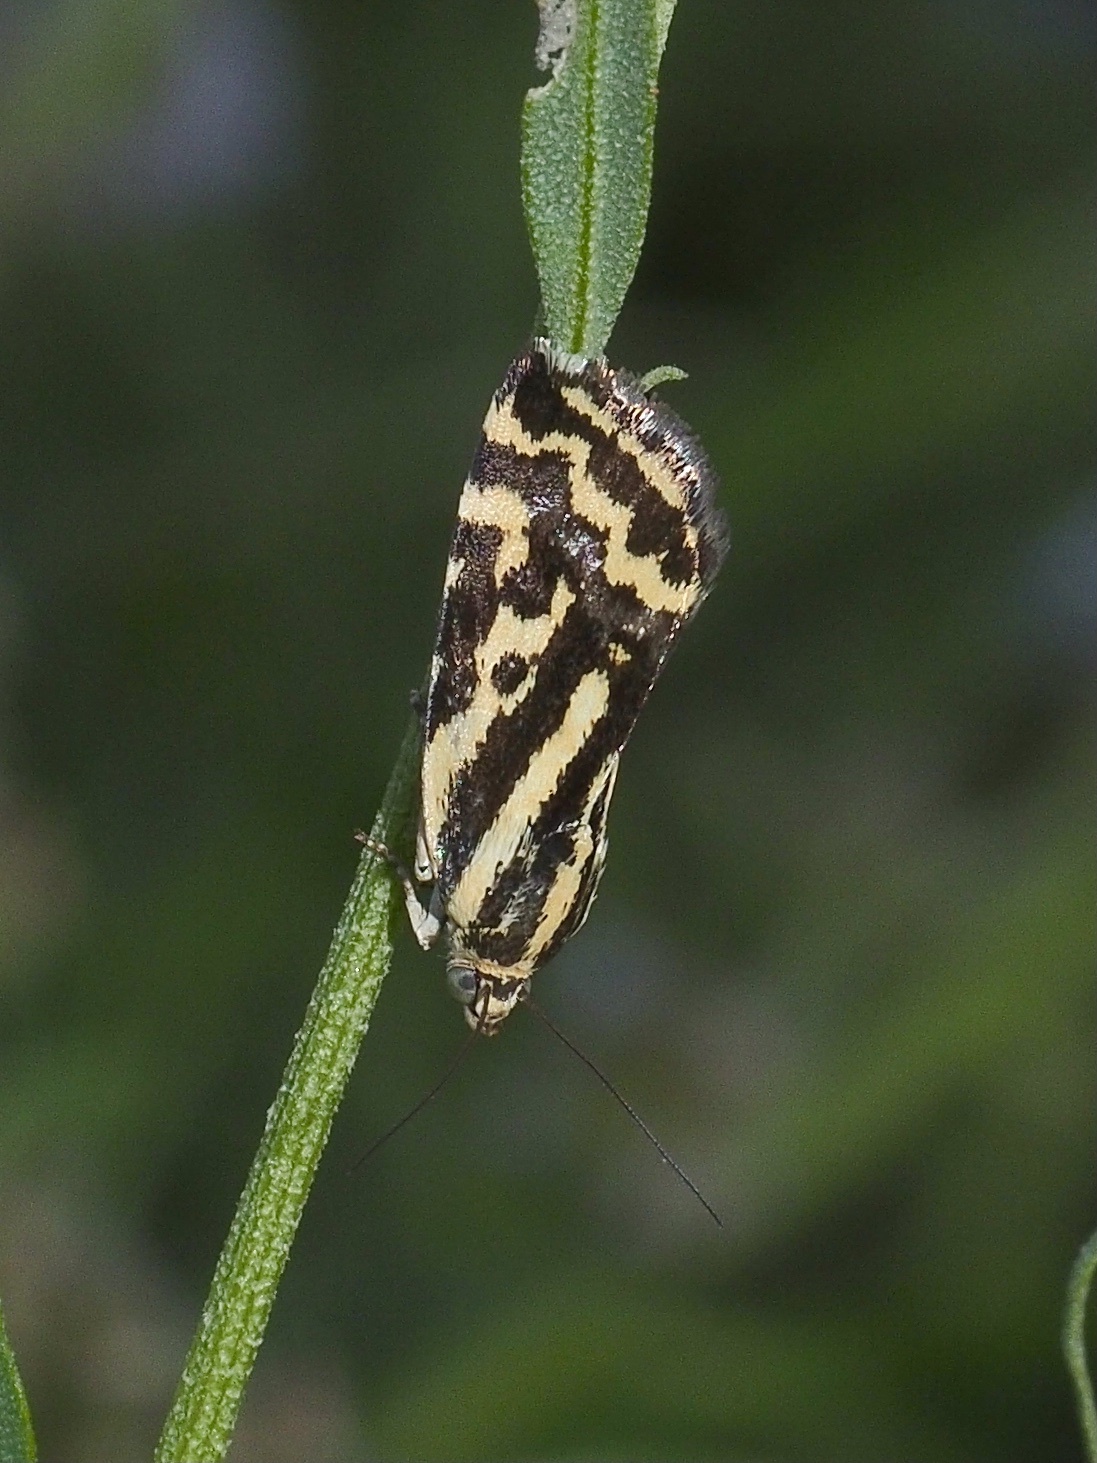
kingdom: Animalia
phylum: Arthropoda
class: Insecta
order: Lepidoptera
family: Noctuidae
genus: Acontia
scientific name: Acontia trabealis
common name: Spotted sulphur
